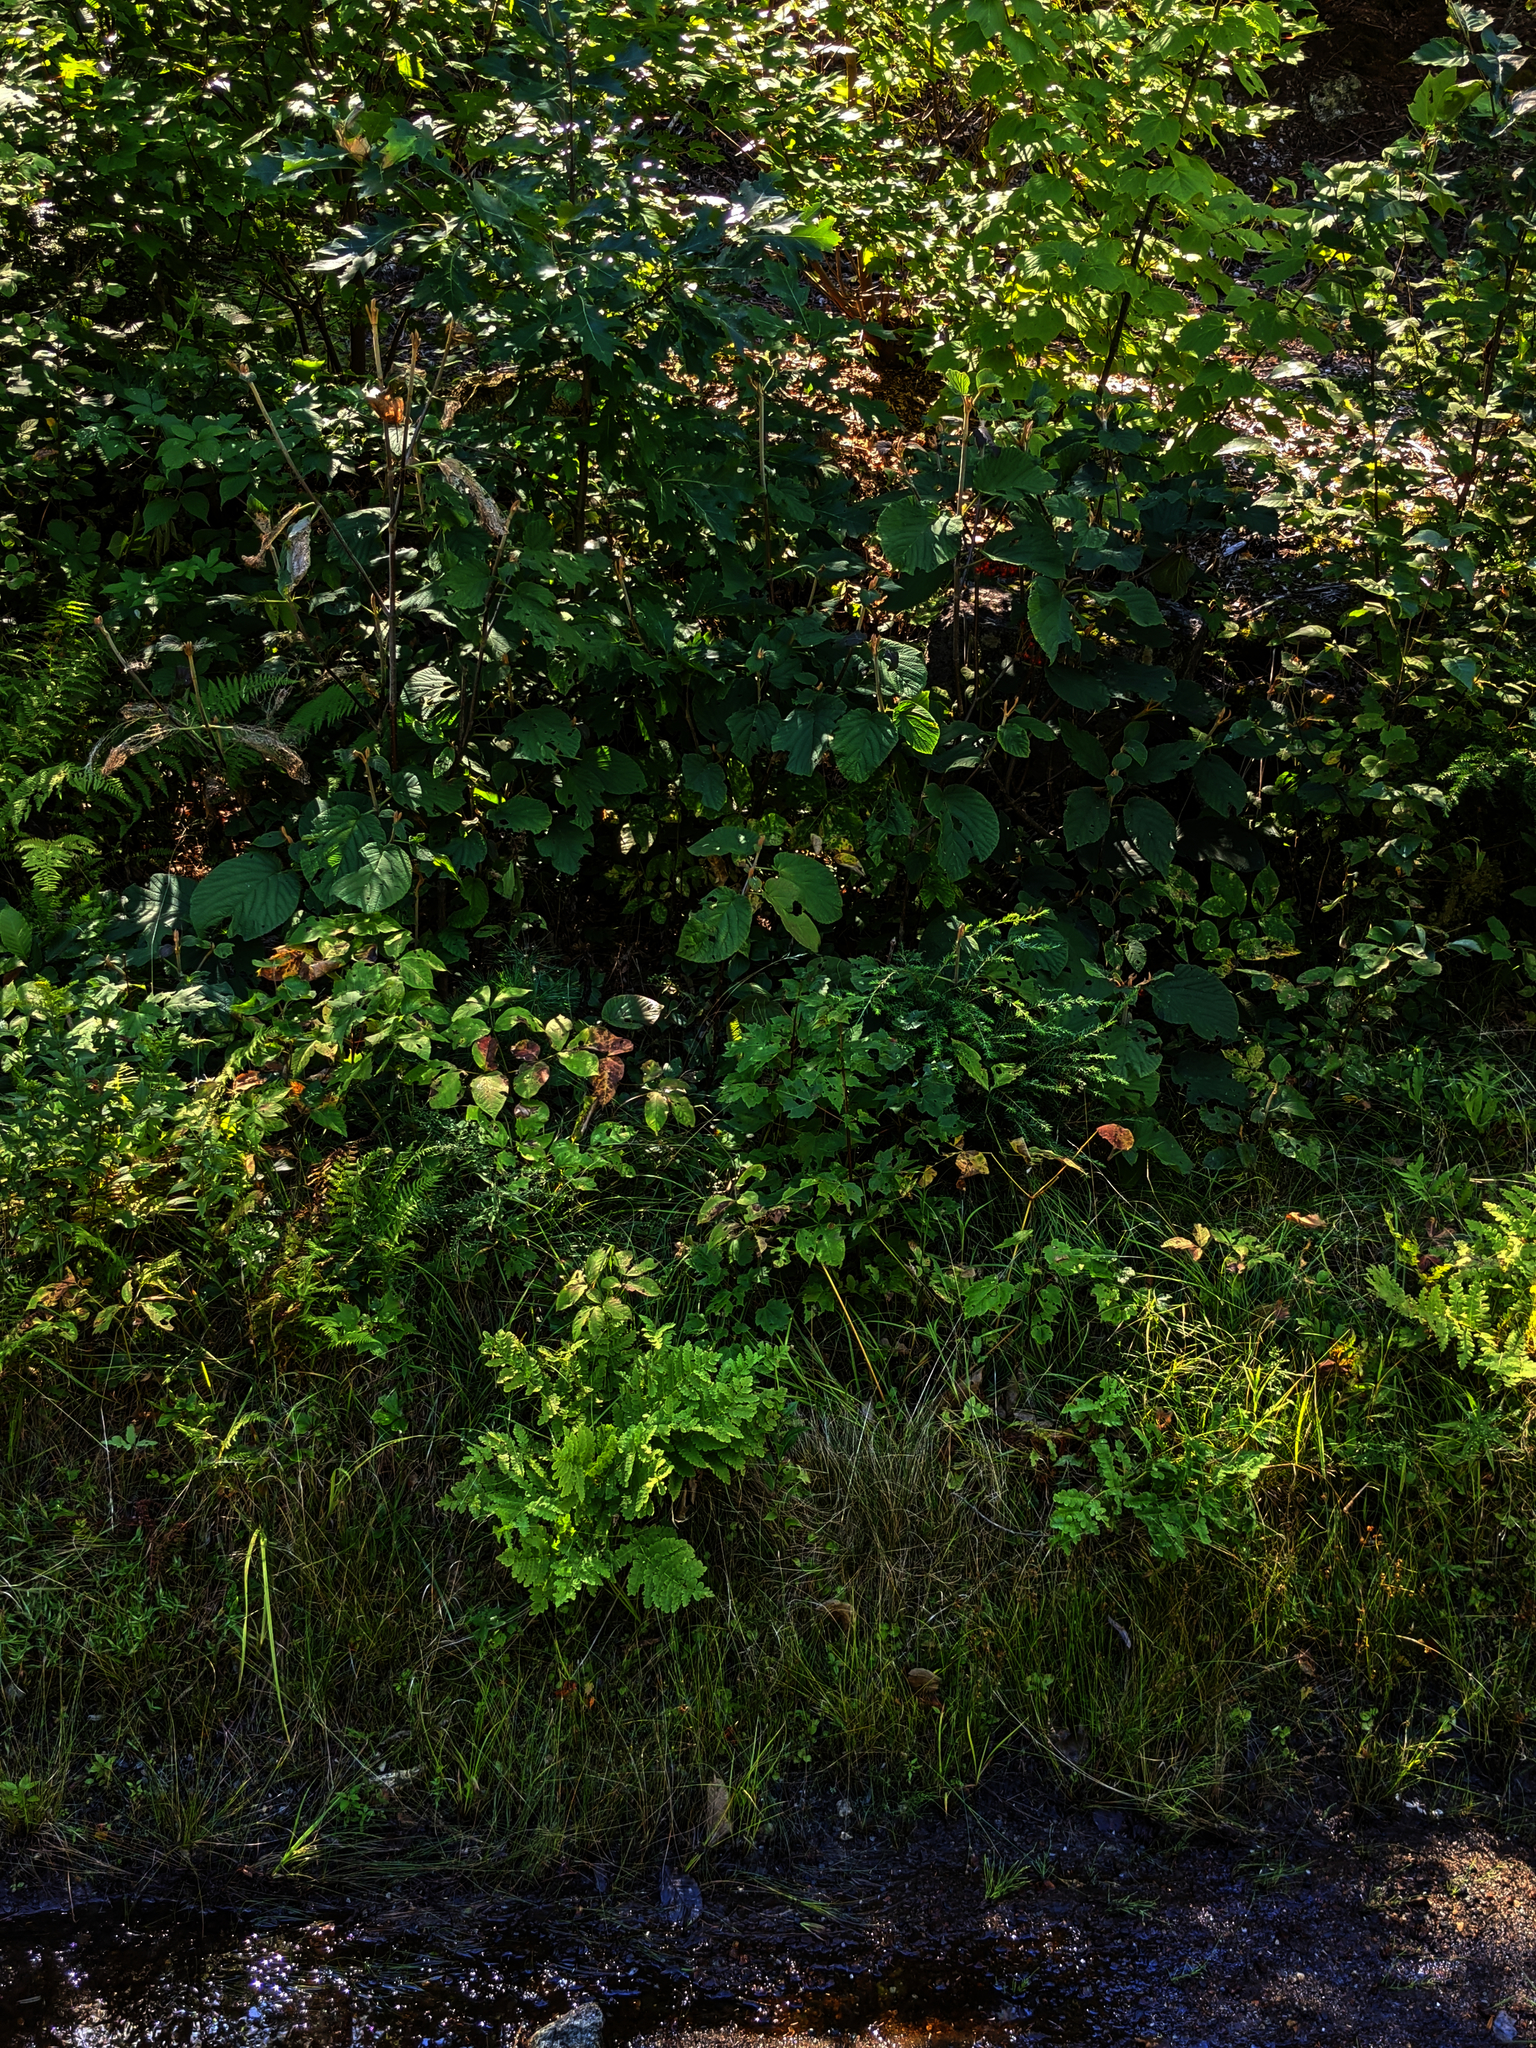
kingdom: Plantae
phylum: Tracheophyta
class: Magnoliopsida
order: Dipsacales
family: Viburnaceae
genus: Viburnum
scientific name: Viburnum lantanoides
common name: Hobblebush
